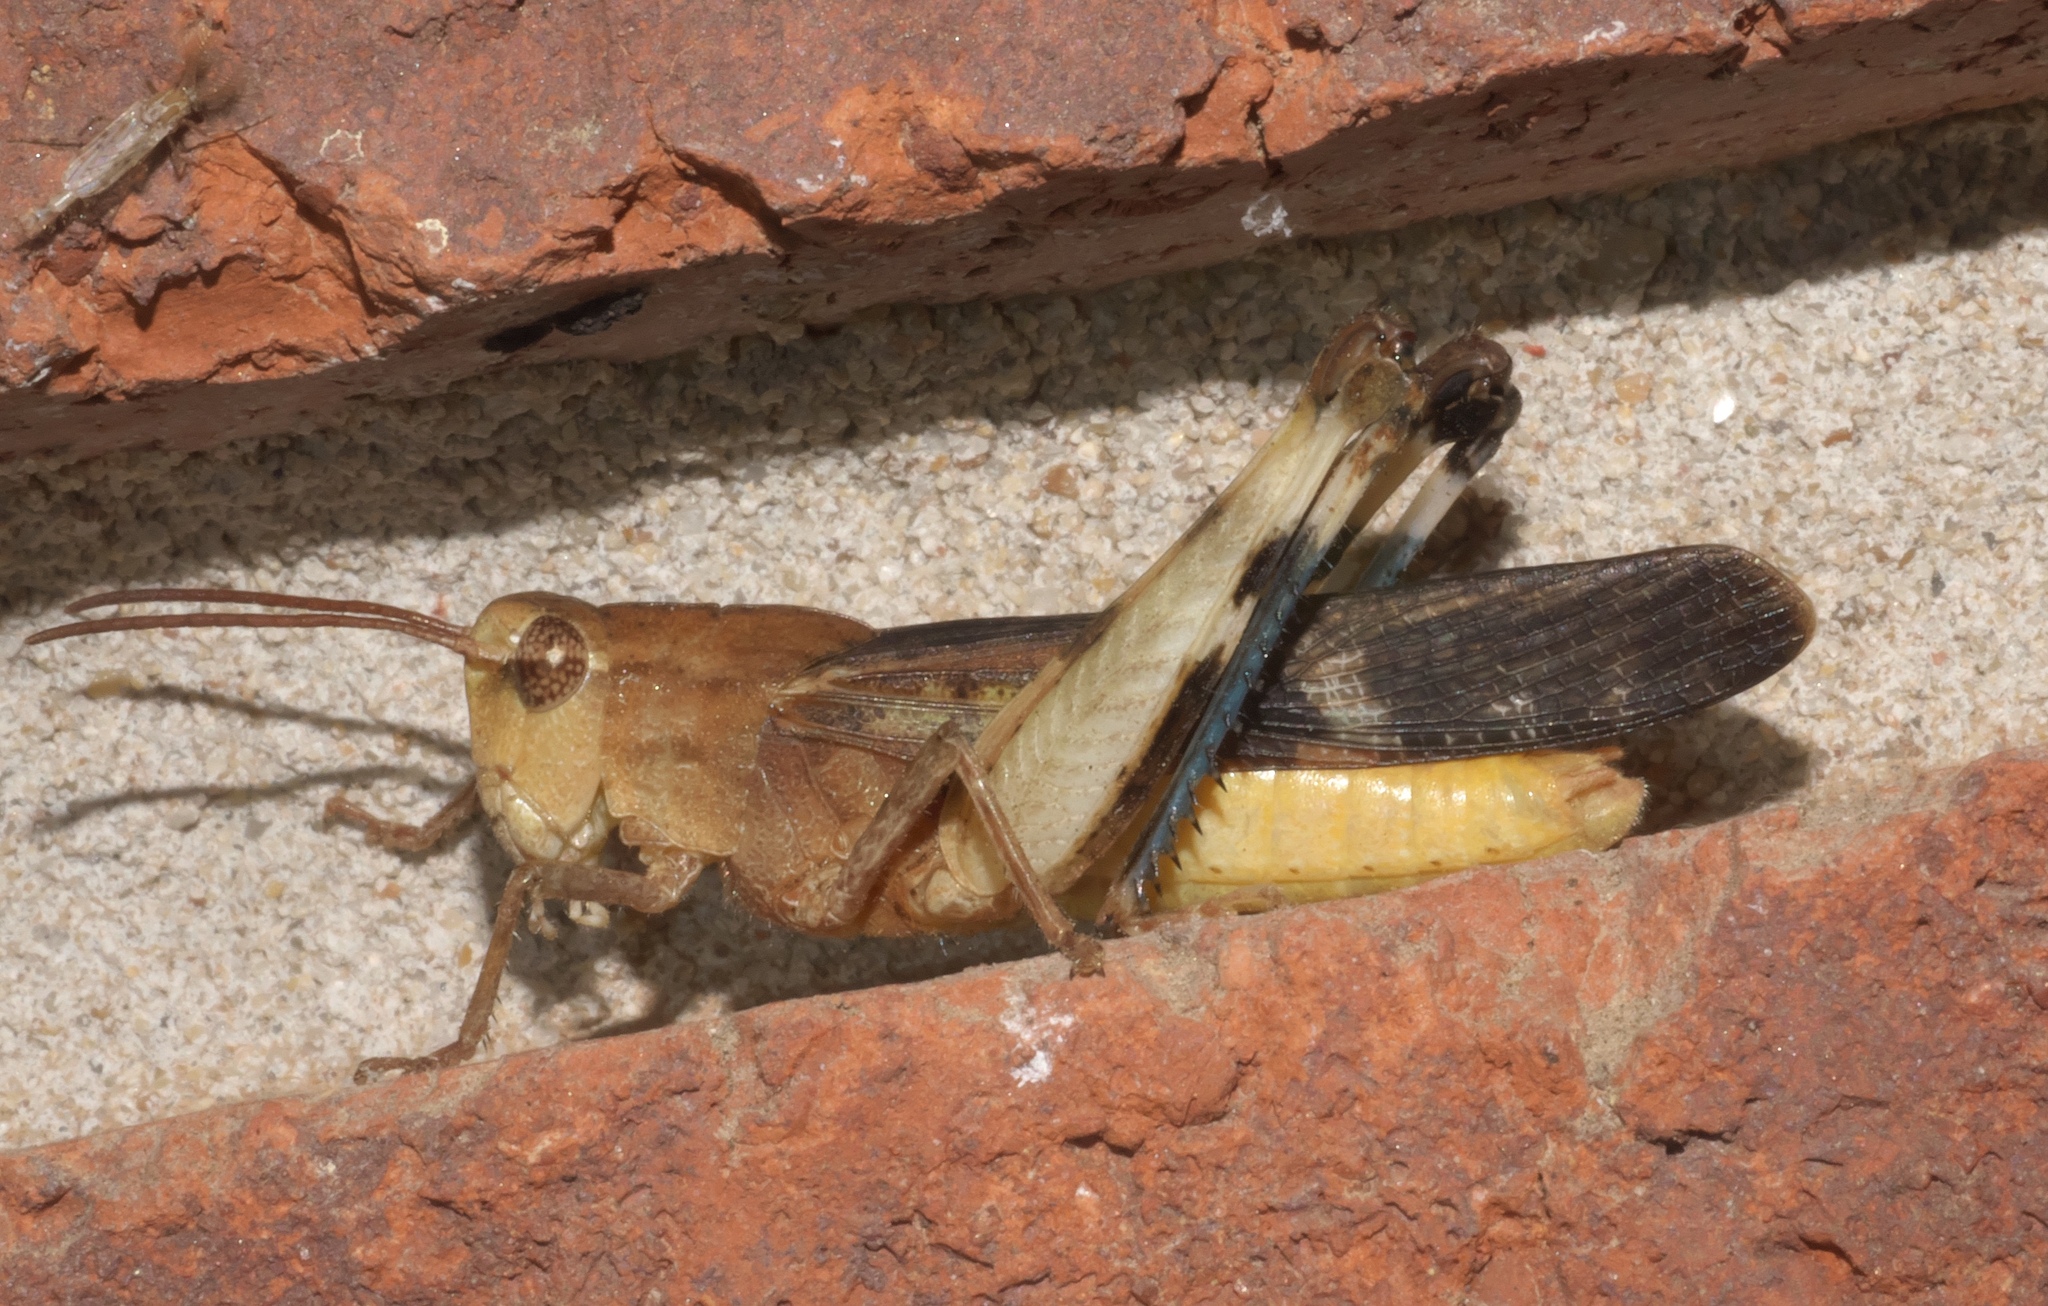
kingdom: Animalia
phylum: Arthropoda
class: Insecta
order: Orthoptera
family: Acrididae
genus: Chortophaga
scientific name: Chortophaga viridifasciata
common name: Green-striped grasshopper
